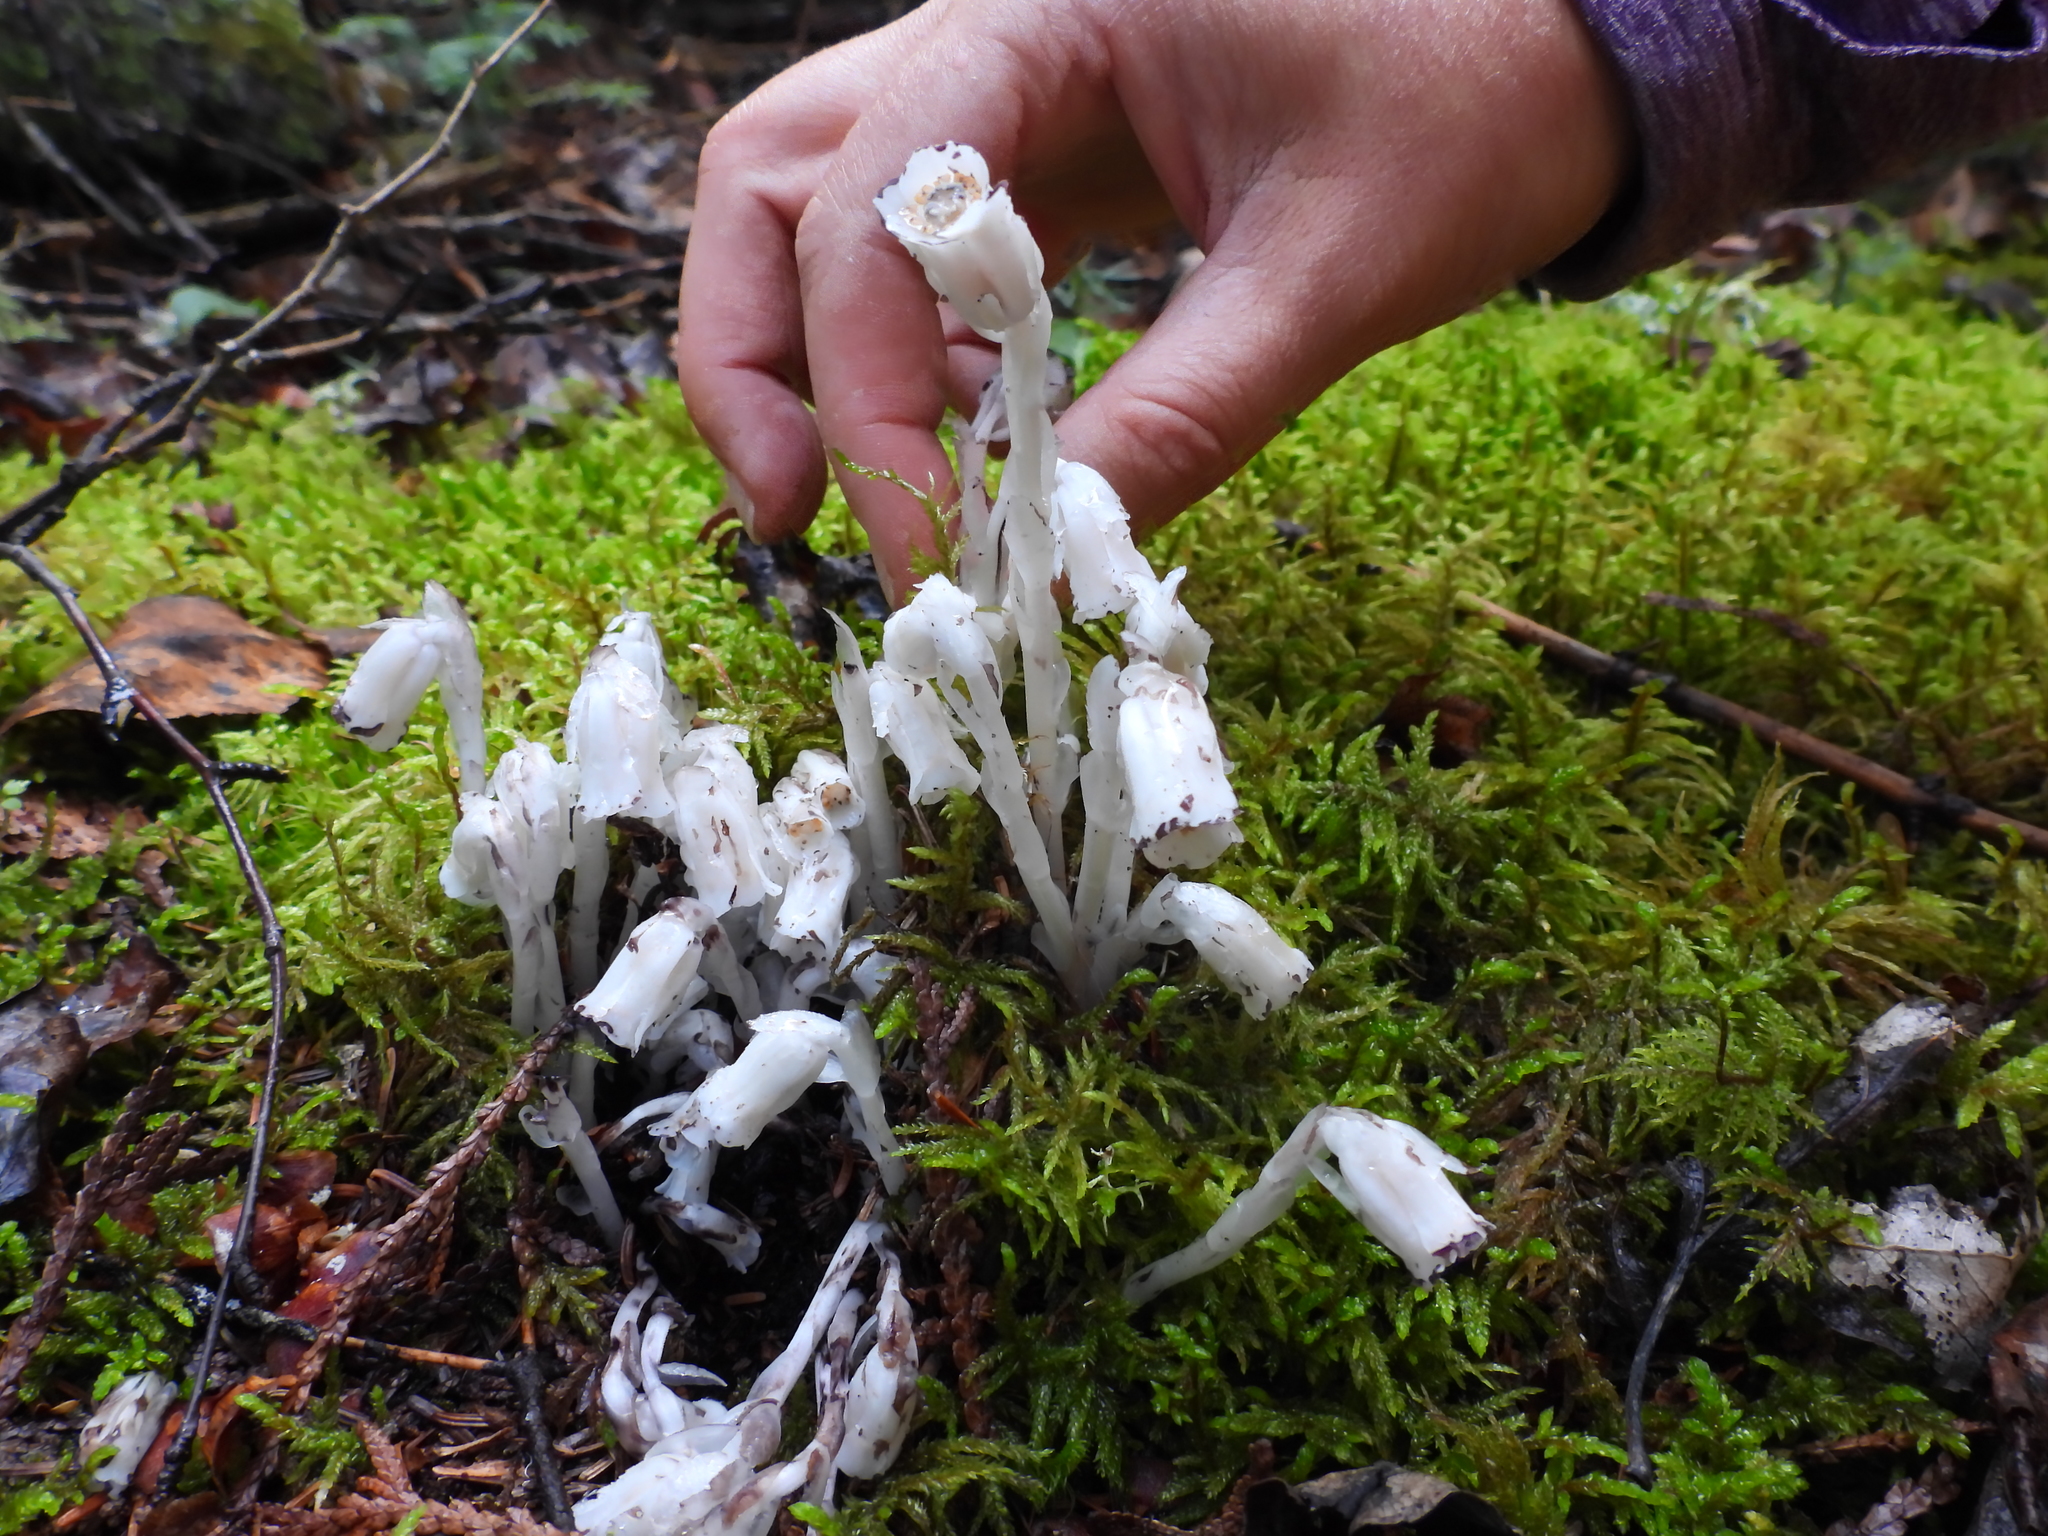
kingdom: Plantae
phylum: Tracheophyta
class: Magnoliopsida
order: Ericales
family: Ericaceae
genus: Monotropa
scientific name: Monotropa uniflora
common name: Convulsion root
